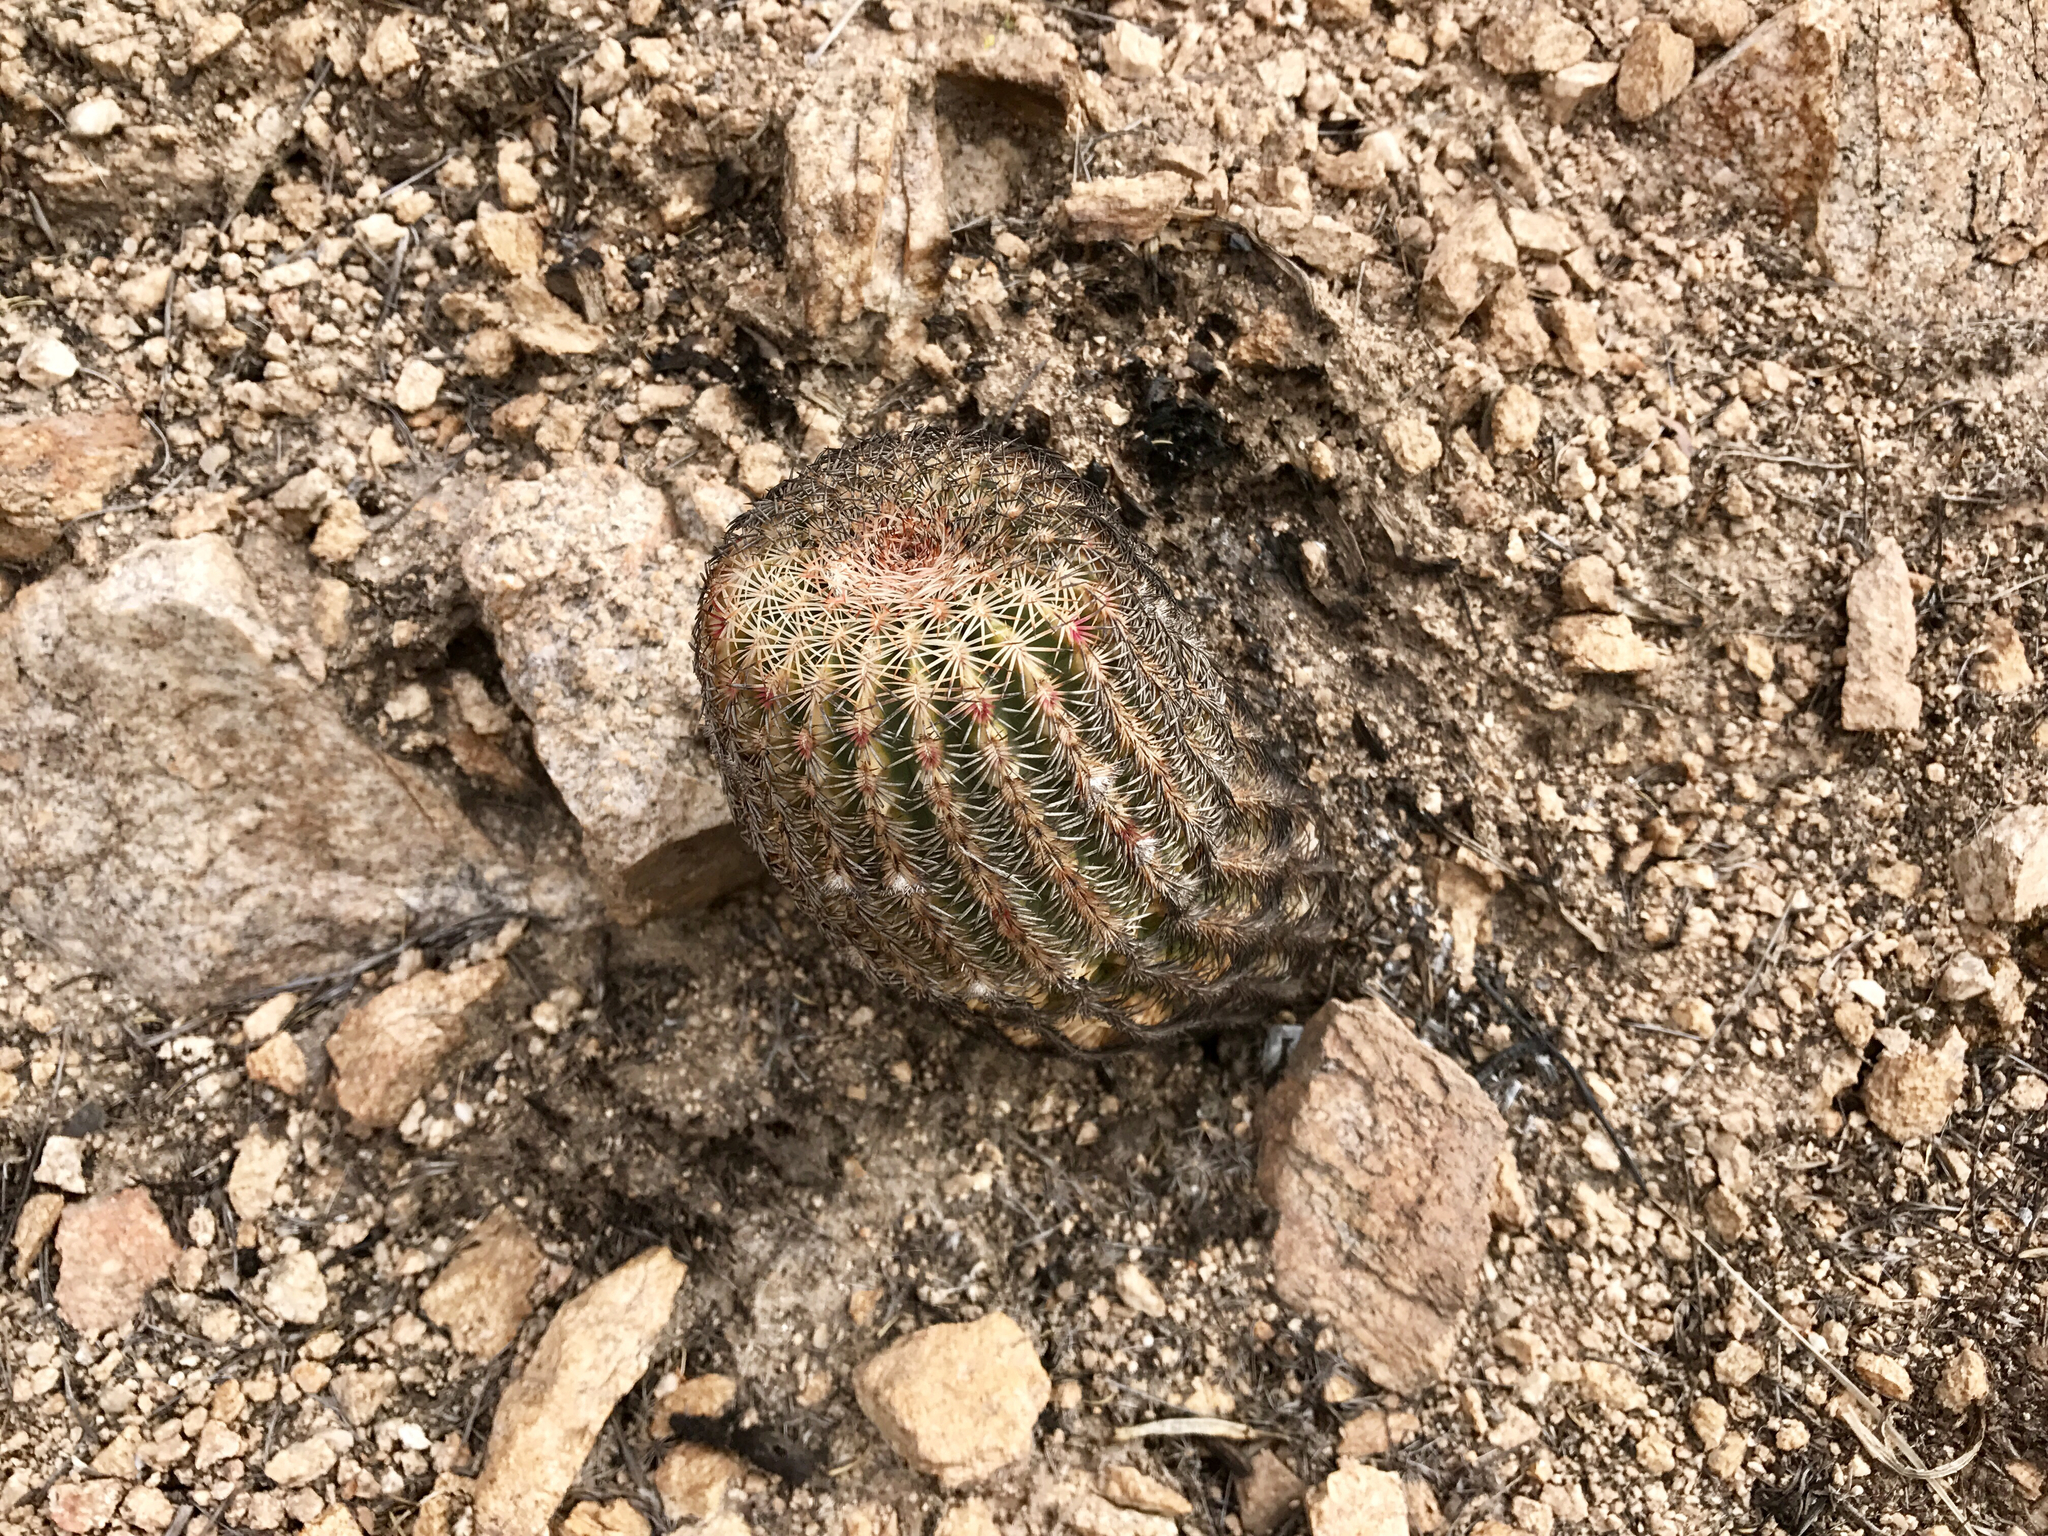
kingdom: Plantae
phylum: Tracheophyta
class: Magnoliopsida
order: Caryophyllales
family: Cactaceae
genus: Echinocereus
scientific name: Echinocereus rigidissimus
